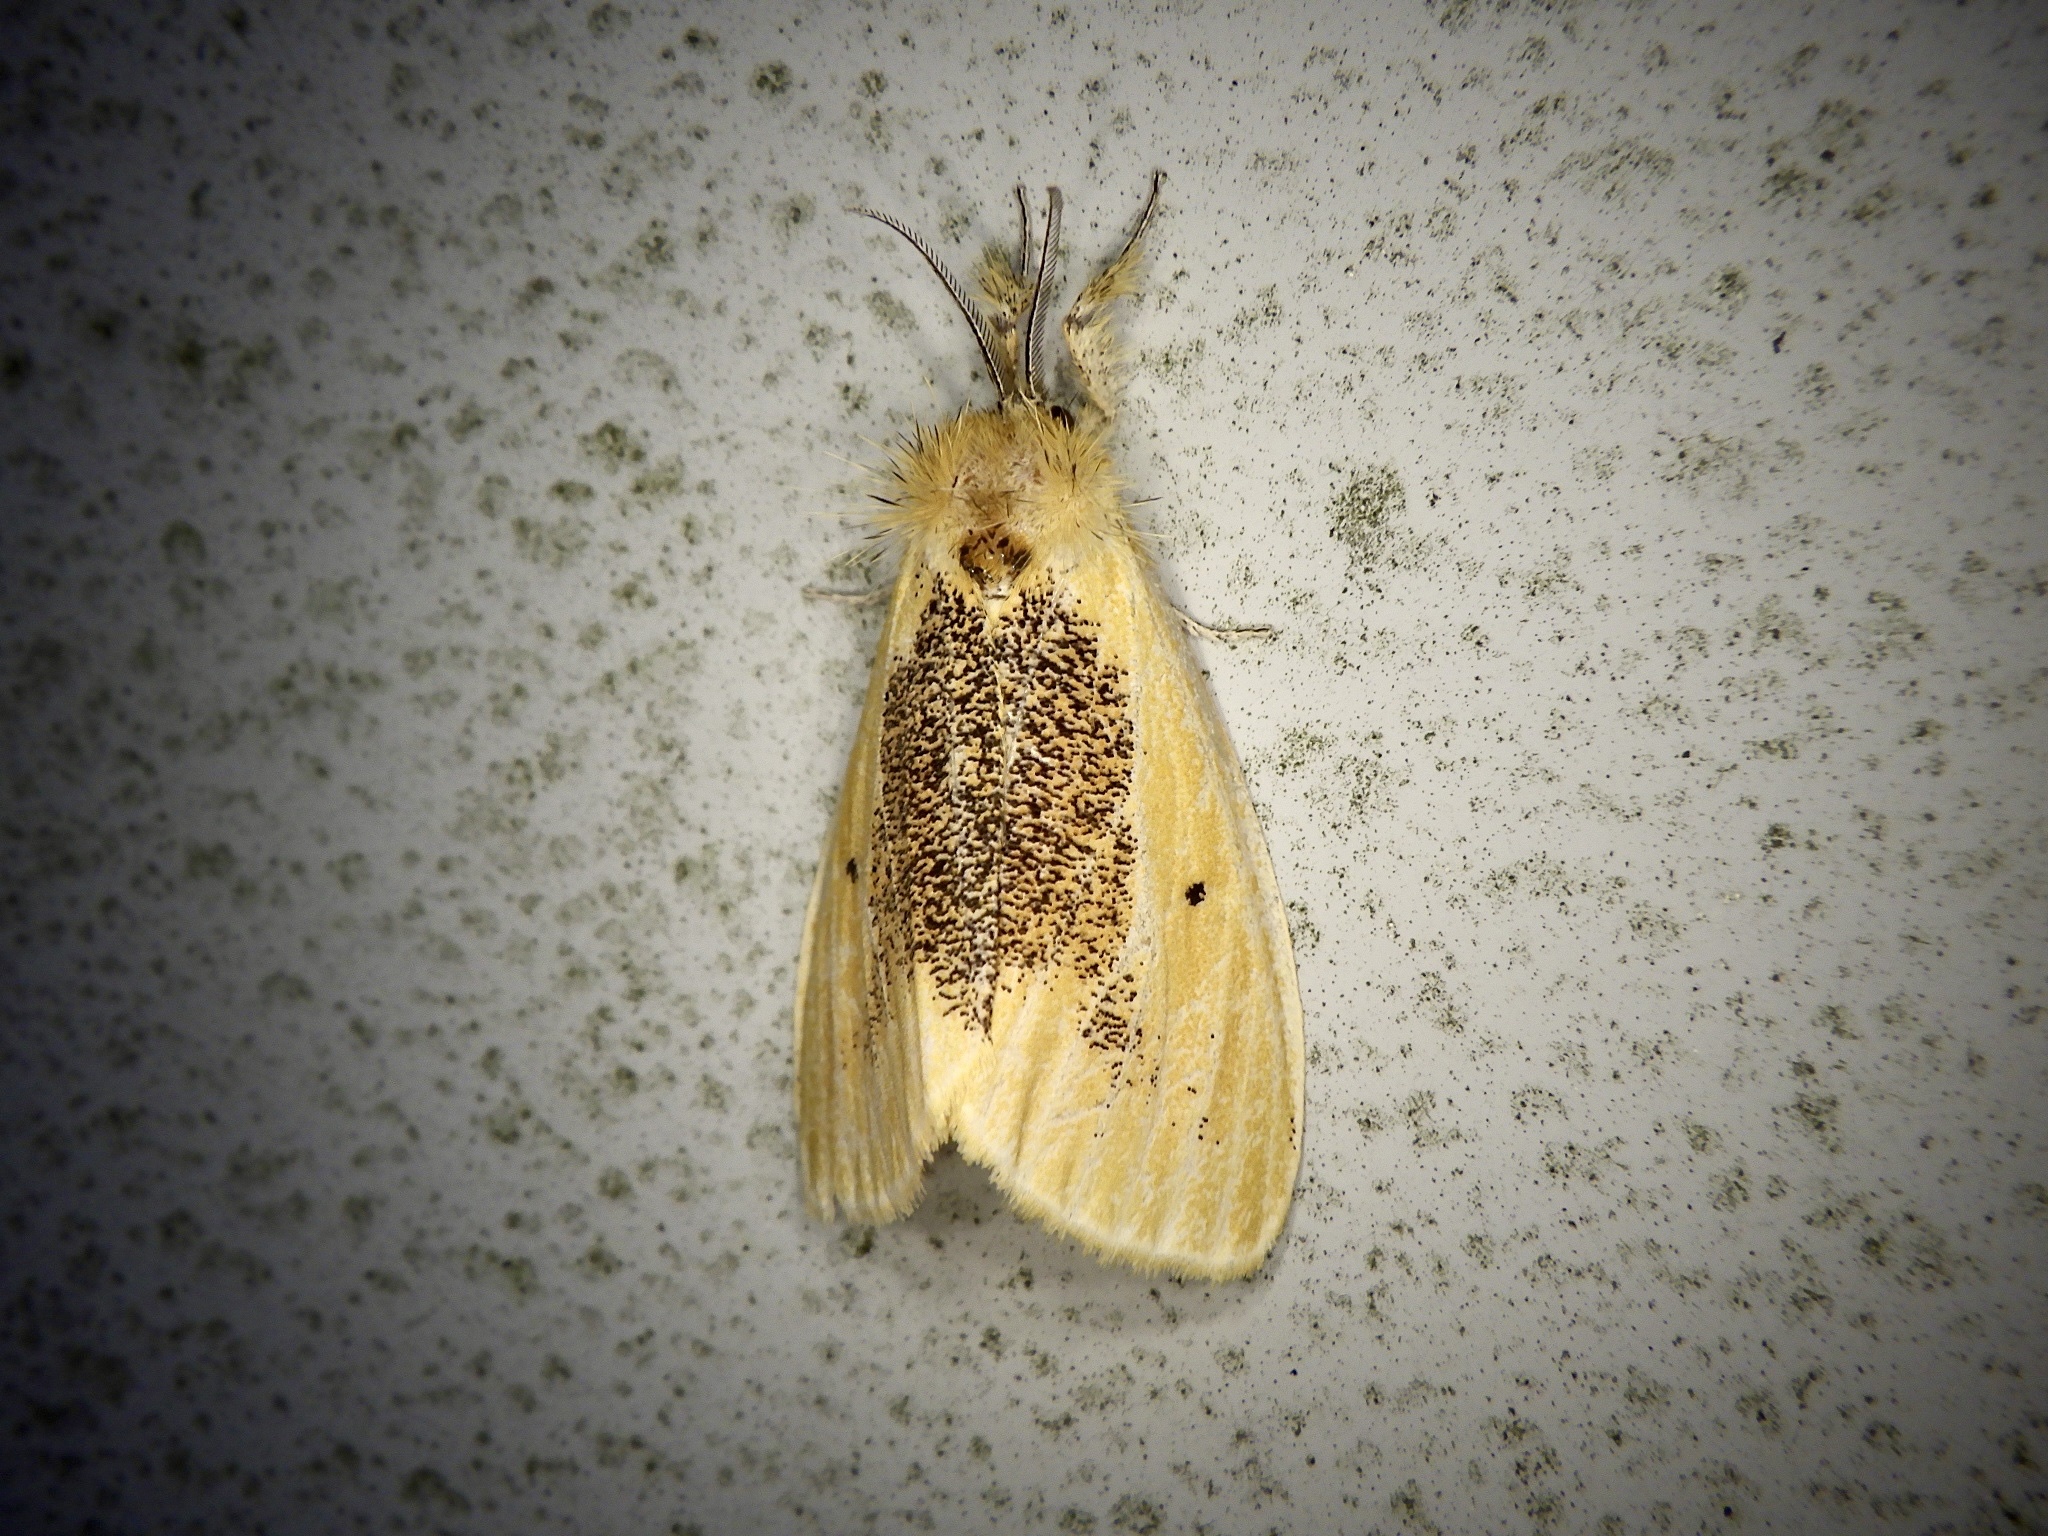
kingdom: Animalia
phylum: Arthropoda
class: Insecta
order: Lepidoptera
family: Erebidae
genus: Kuromondokuga
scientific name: Kuromondokuga niphonis
